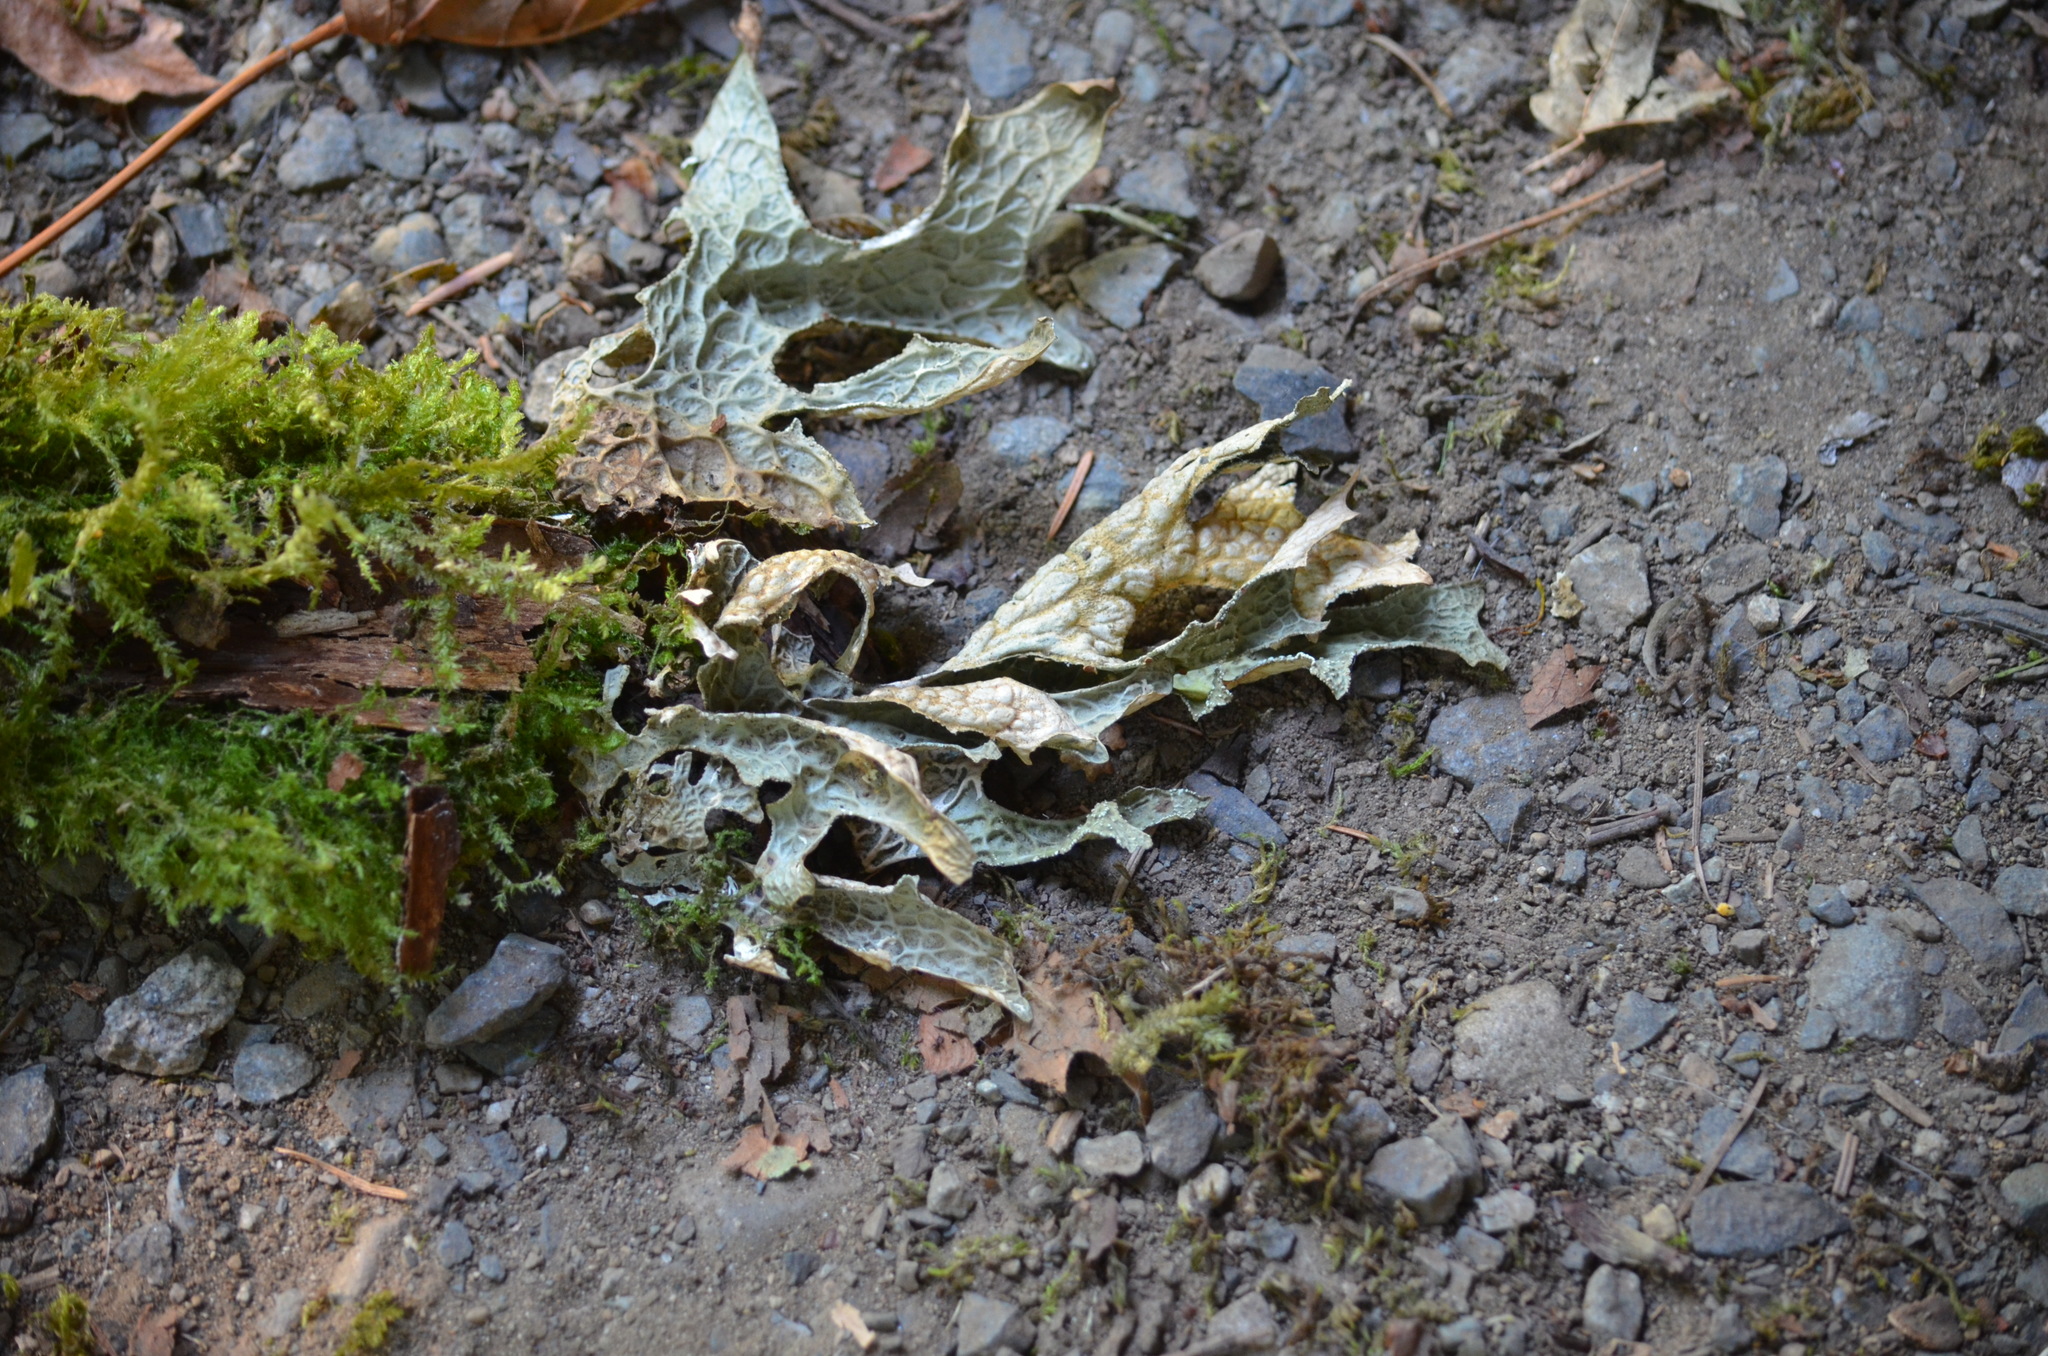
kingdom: Fungi
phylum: Ascomycota
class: Lecanoromycetes
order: Peltigerales
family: Lobariaceae
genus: Lobaria
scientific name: Lobaria pulmonaria
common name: Lungwort
